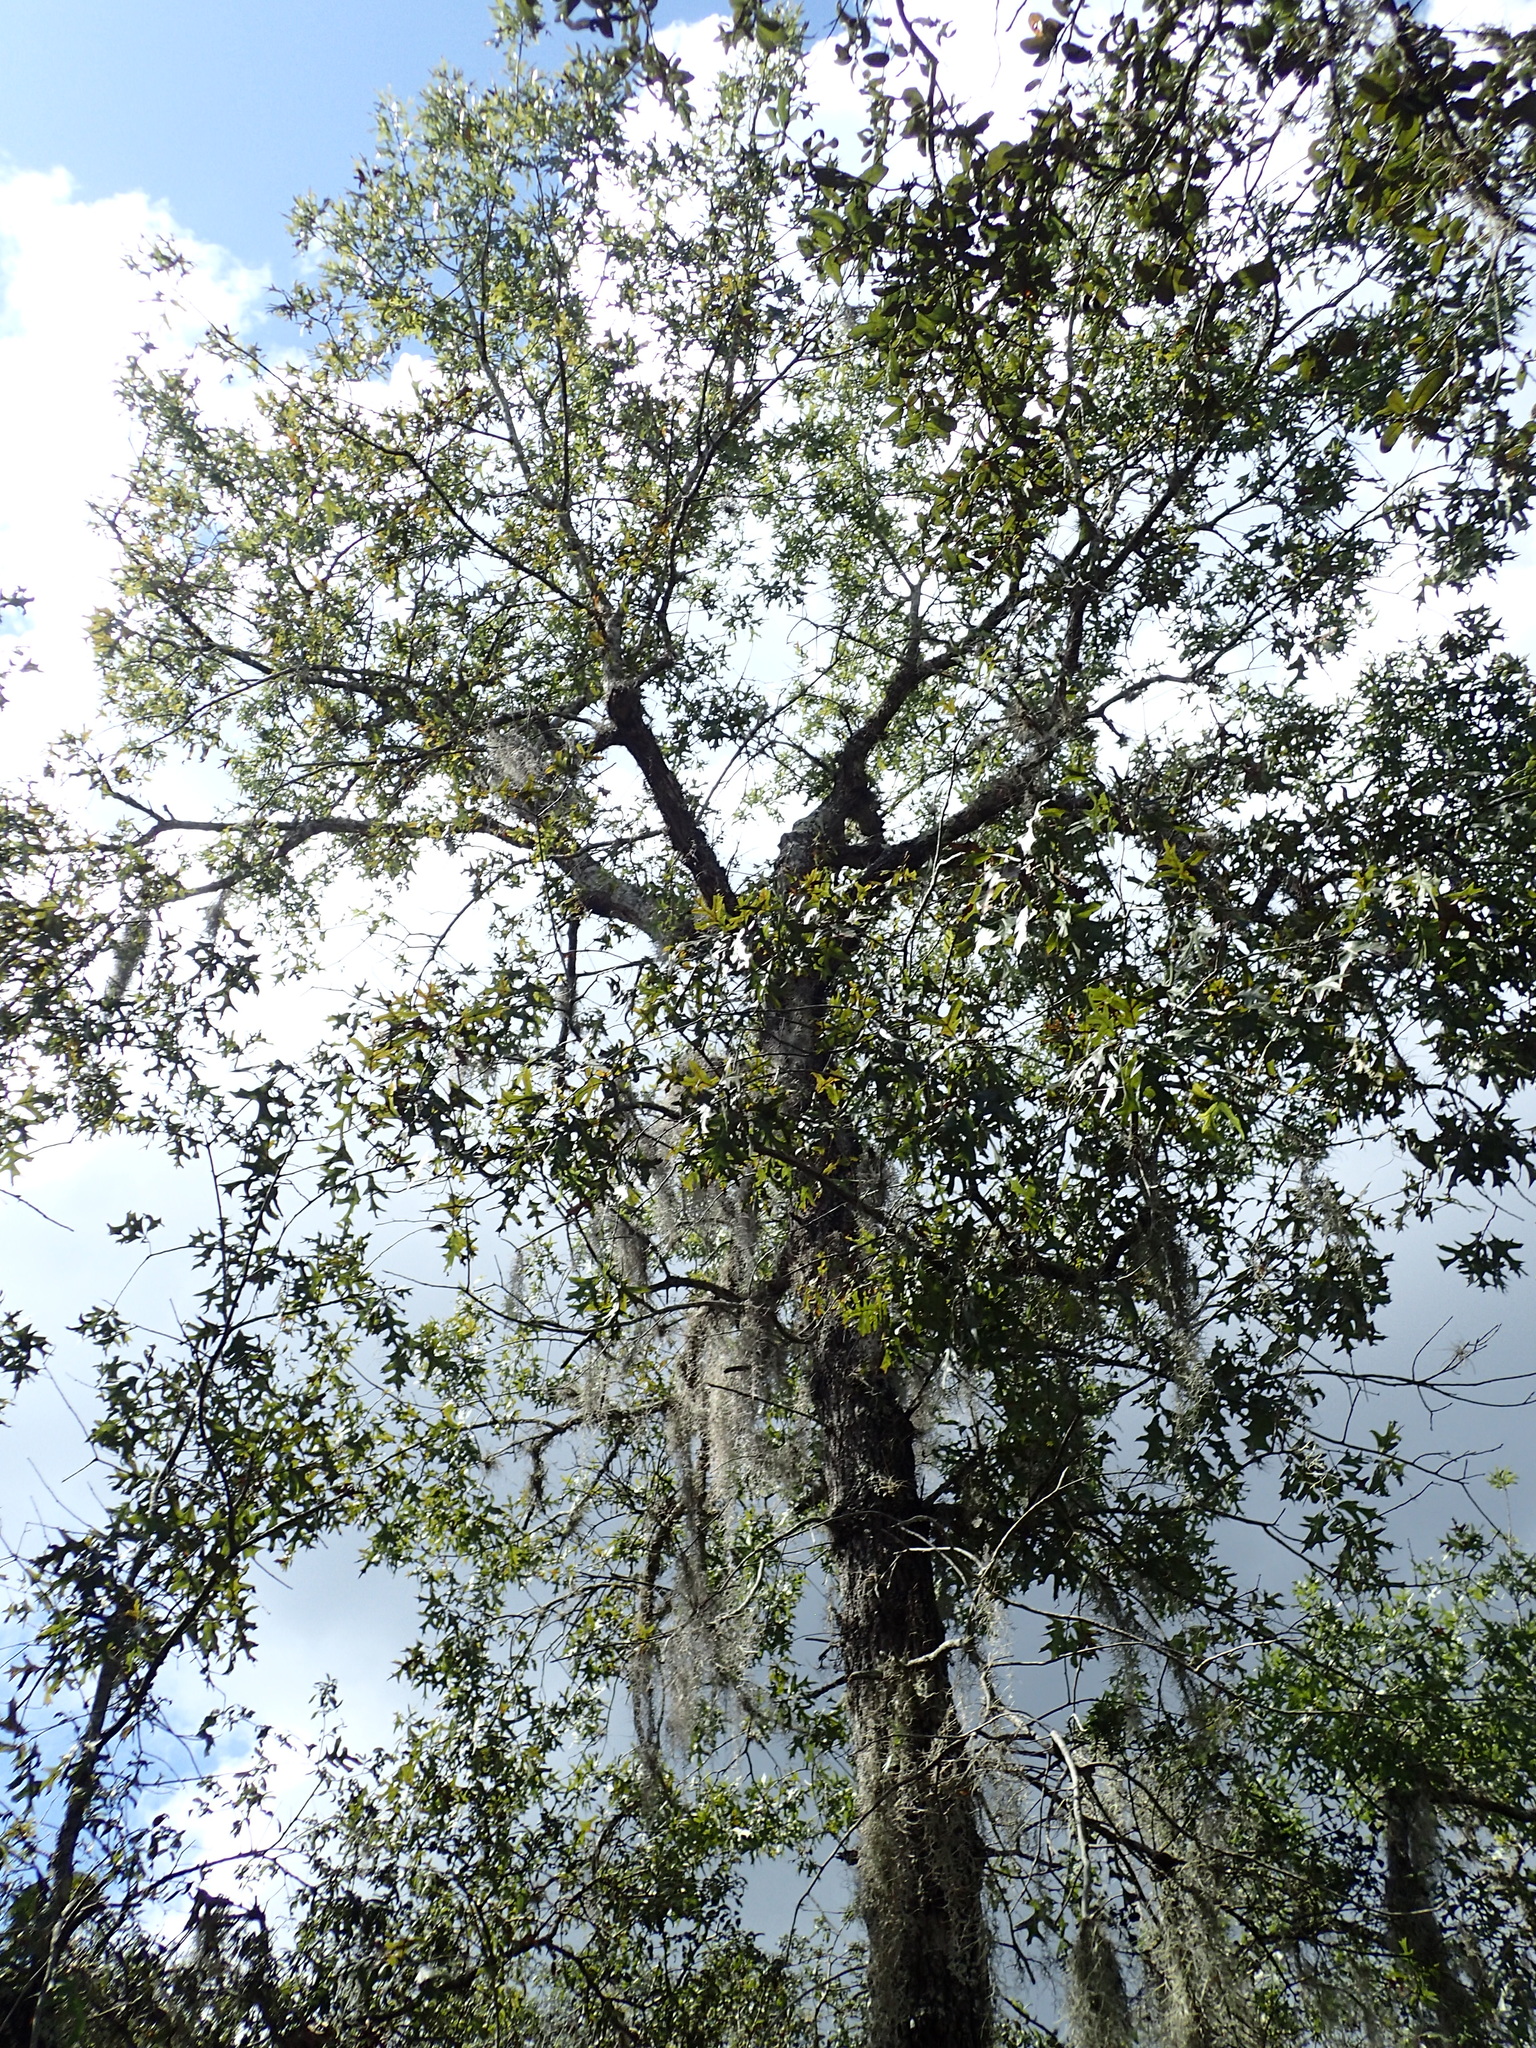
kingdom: Plantae
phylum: Tracheophyta
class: Magnoliopsida
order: Fagales
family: Fagaceae
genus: Quercus
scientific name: Quercus laevis
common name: Turkey oak
